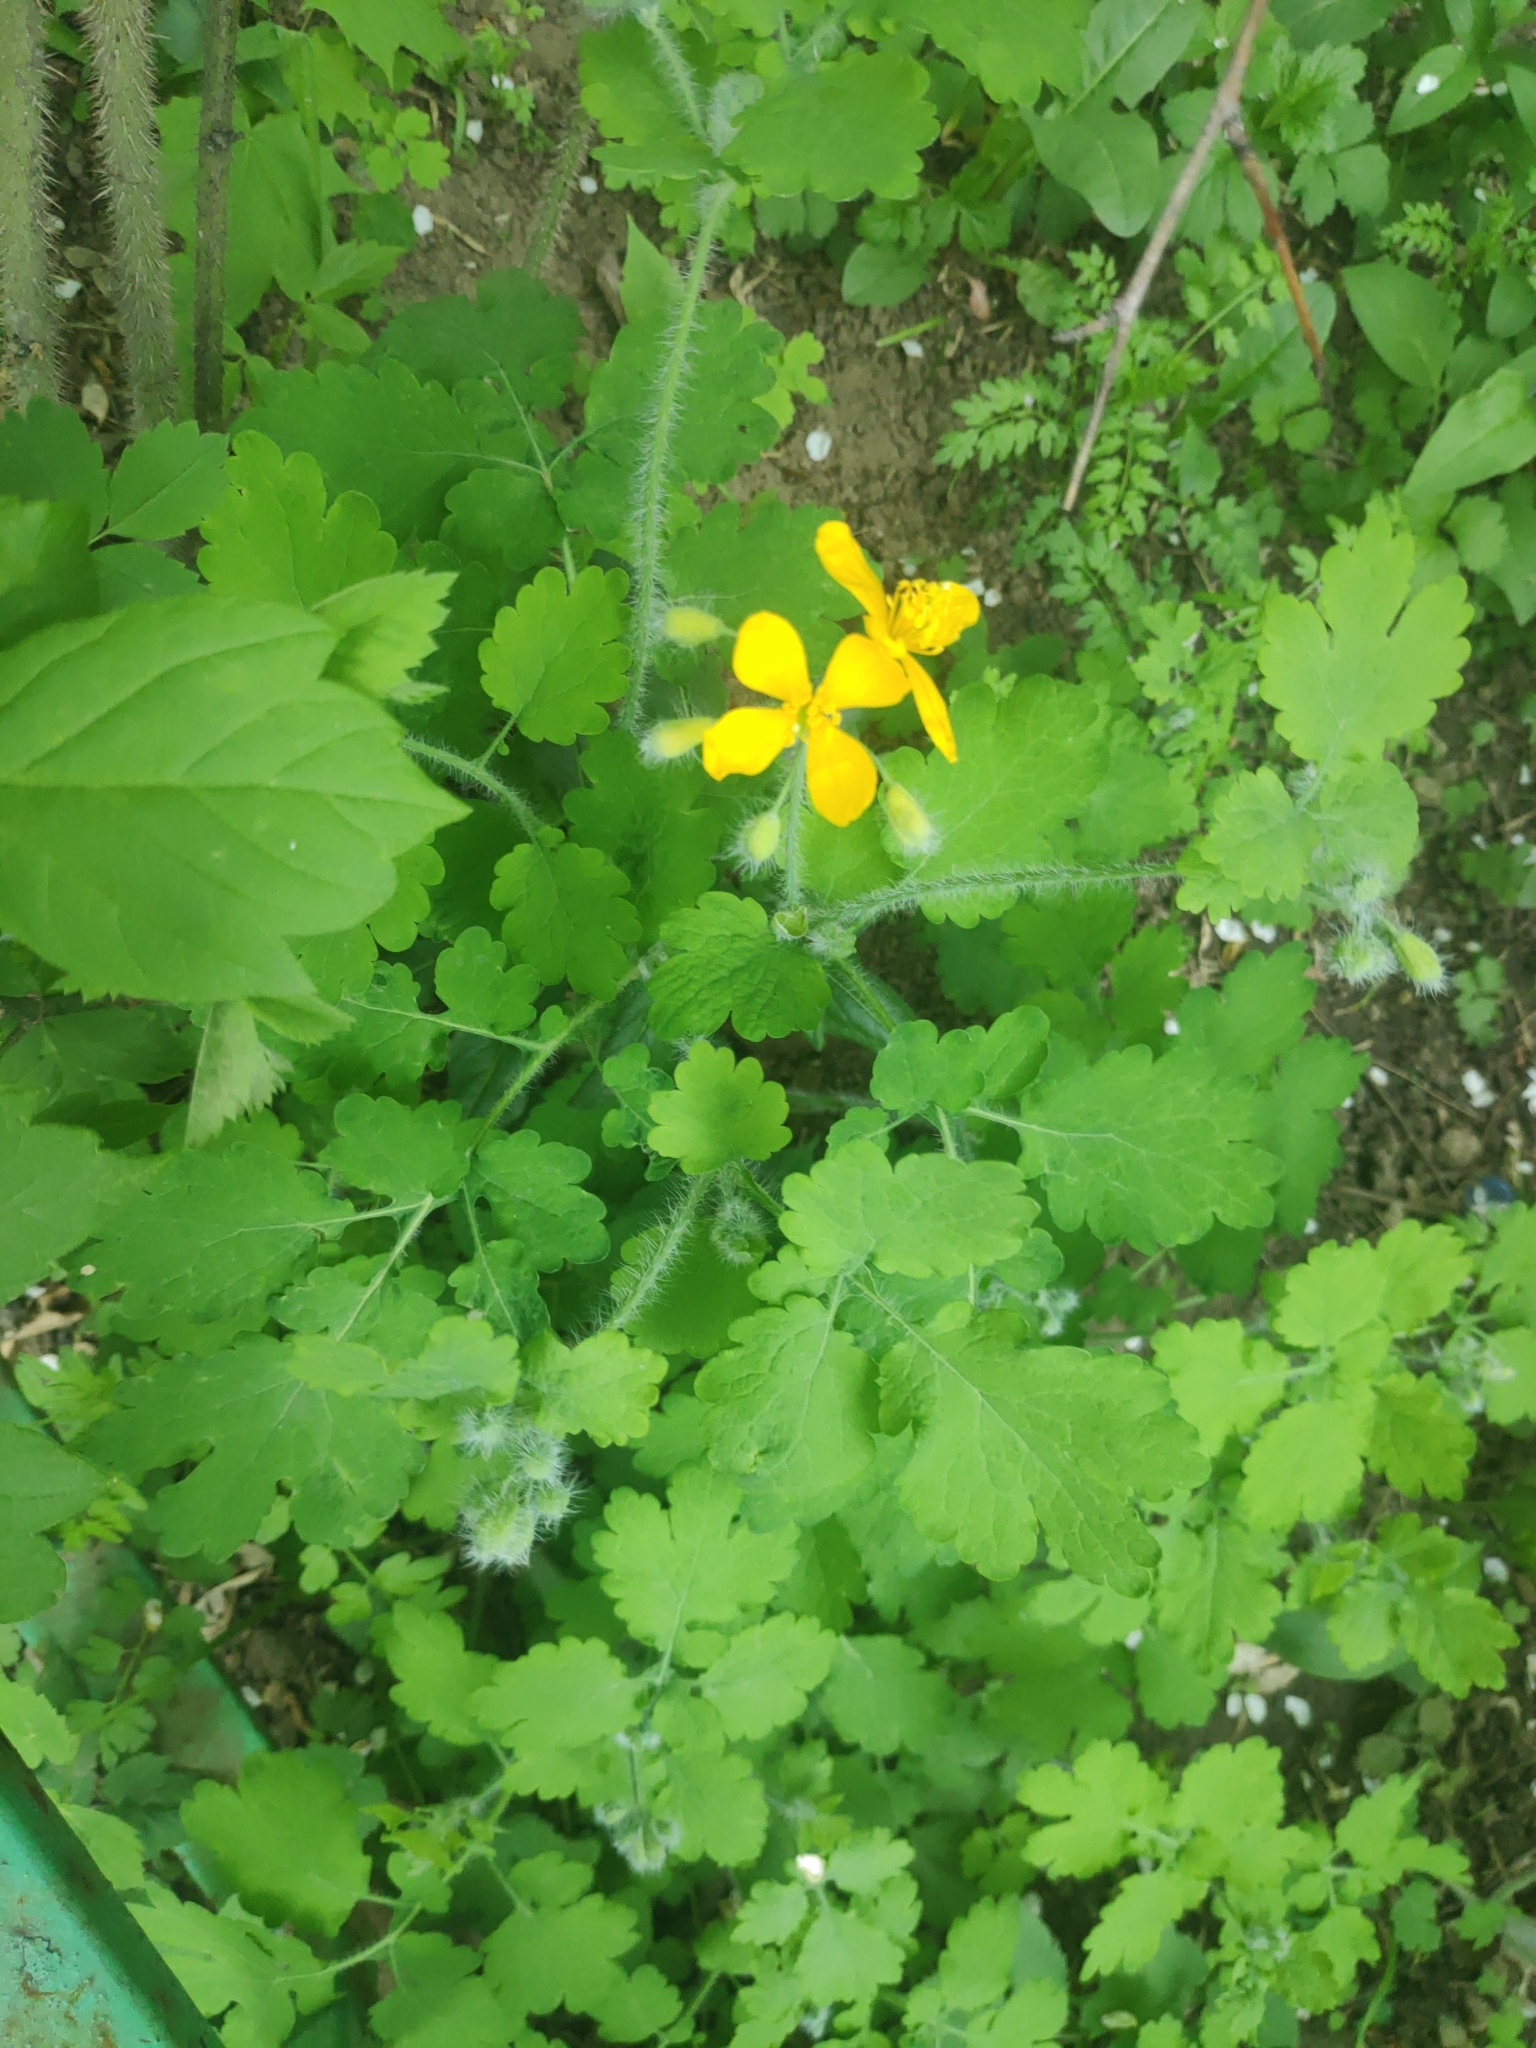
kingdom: Plantae
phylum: Tracheophyta
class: Magnoliopsida
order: Ranunculales
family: Papaveraceae
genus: Chelidonium
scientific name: Chelidonium majus
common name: Greater celandine
